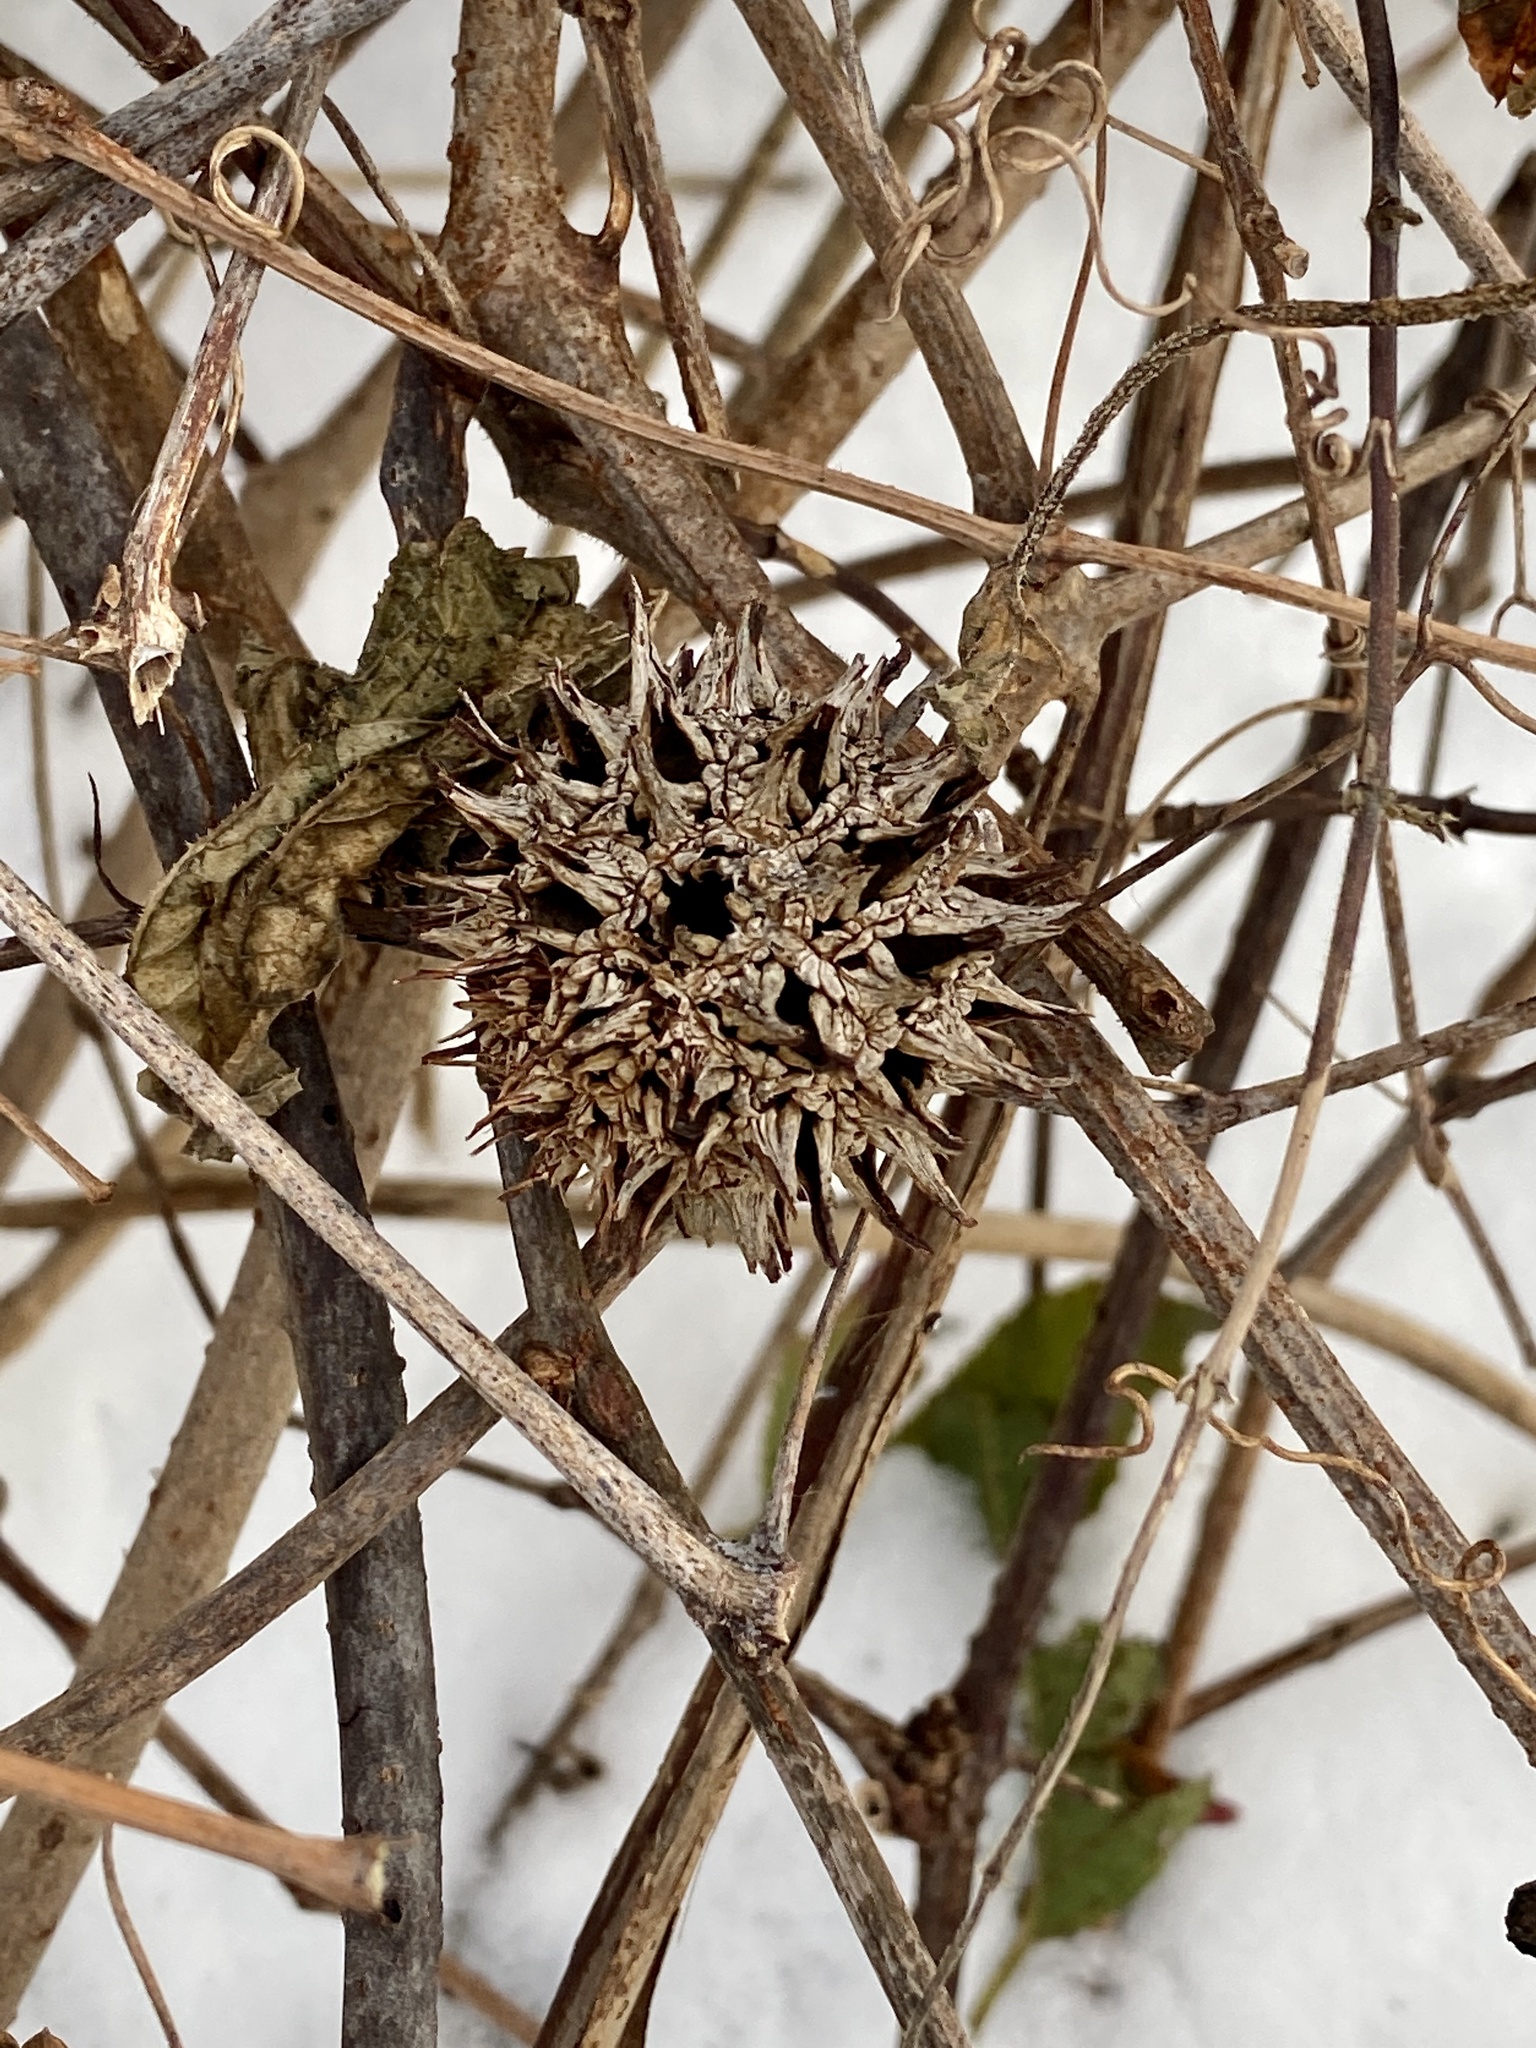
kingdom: Plantae
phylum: Tracheophyta
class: Magnoliopsida
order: Saxifragales
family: Altingiaceae
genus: Liquidambar
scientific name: Liquidambar styraciflua
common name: Sweet gum
